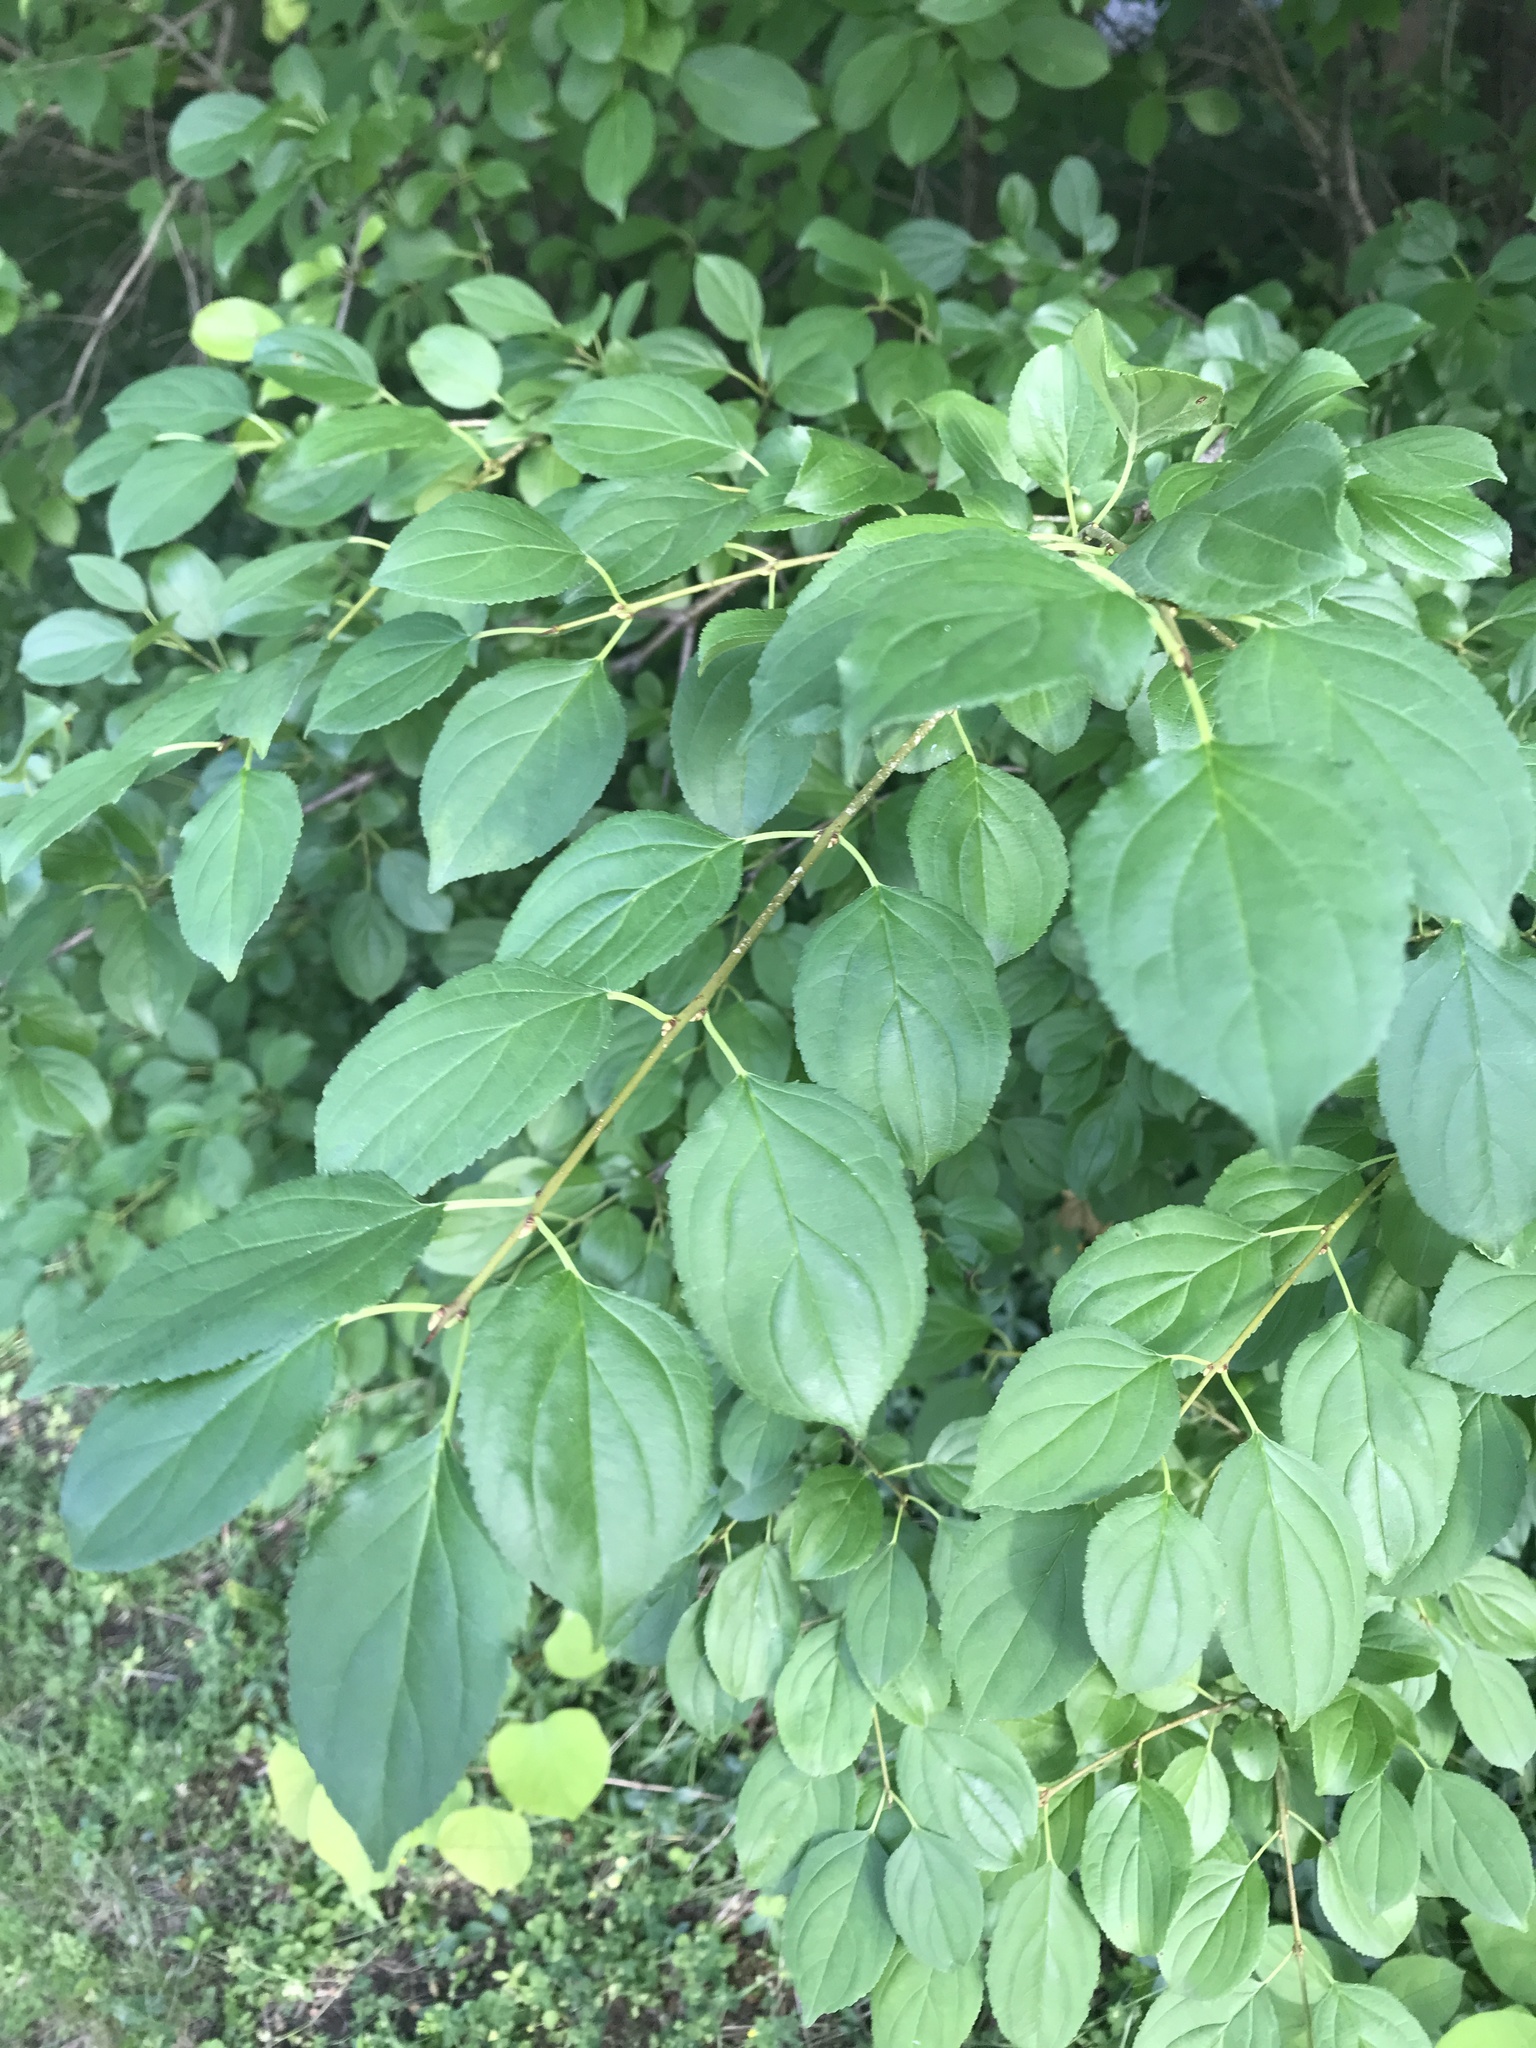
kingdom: Plantae
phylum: Tracheophyta
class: Magnoliopsida
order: Rosales
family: Rhamnaceae
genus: Rhamnus
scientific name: Rhamnus cathartica
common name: Common buckthorn
